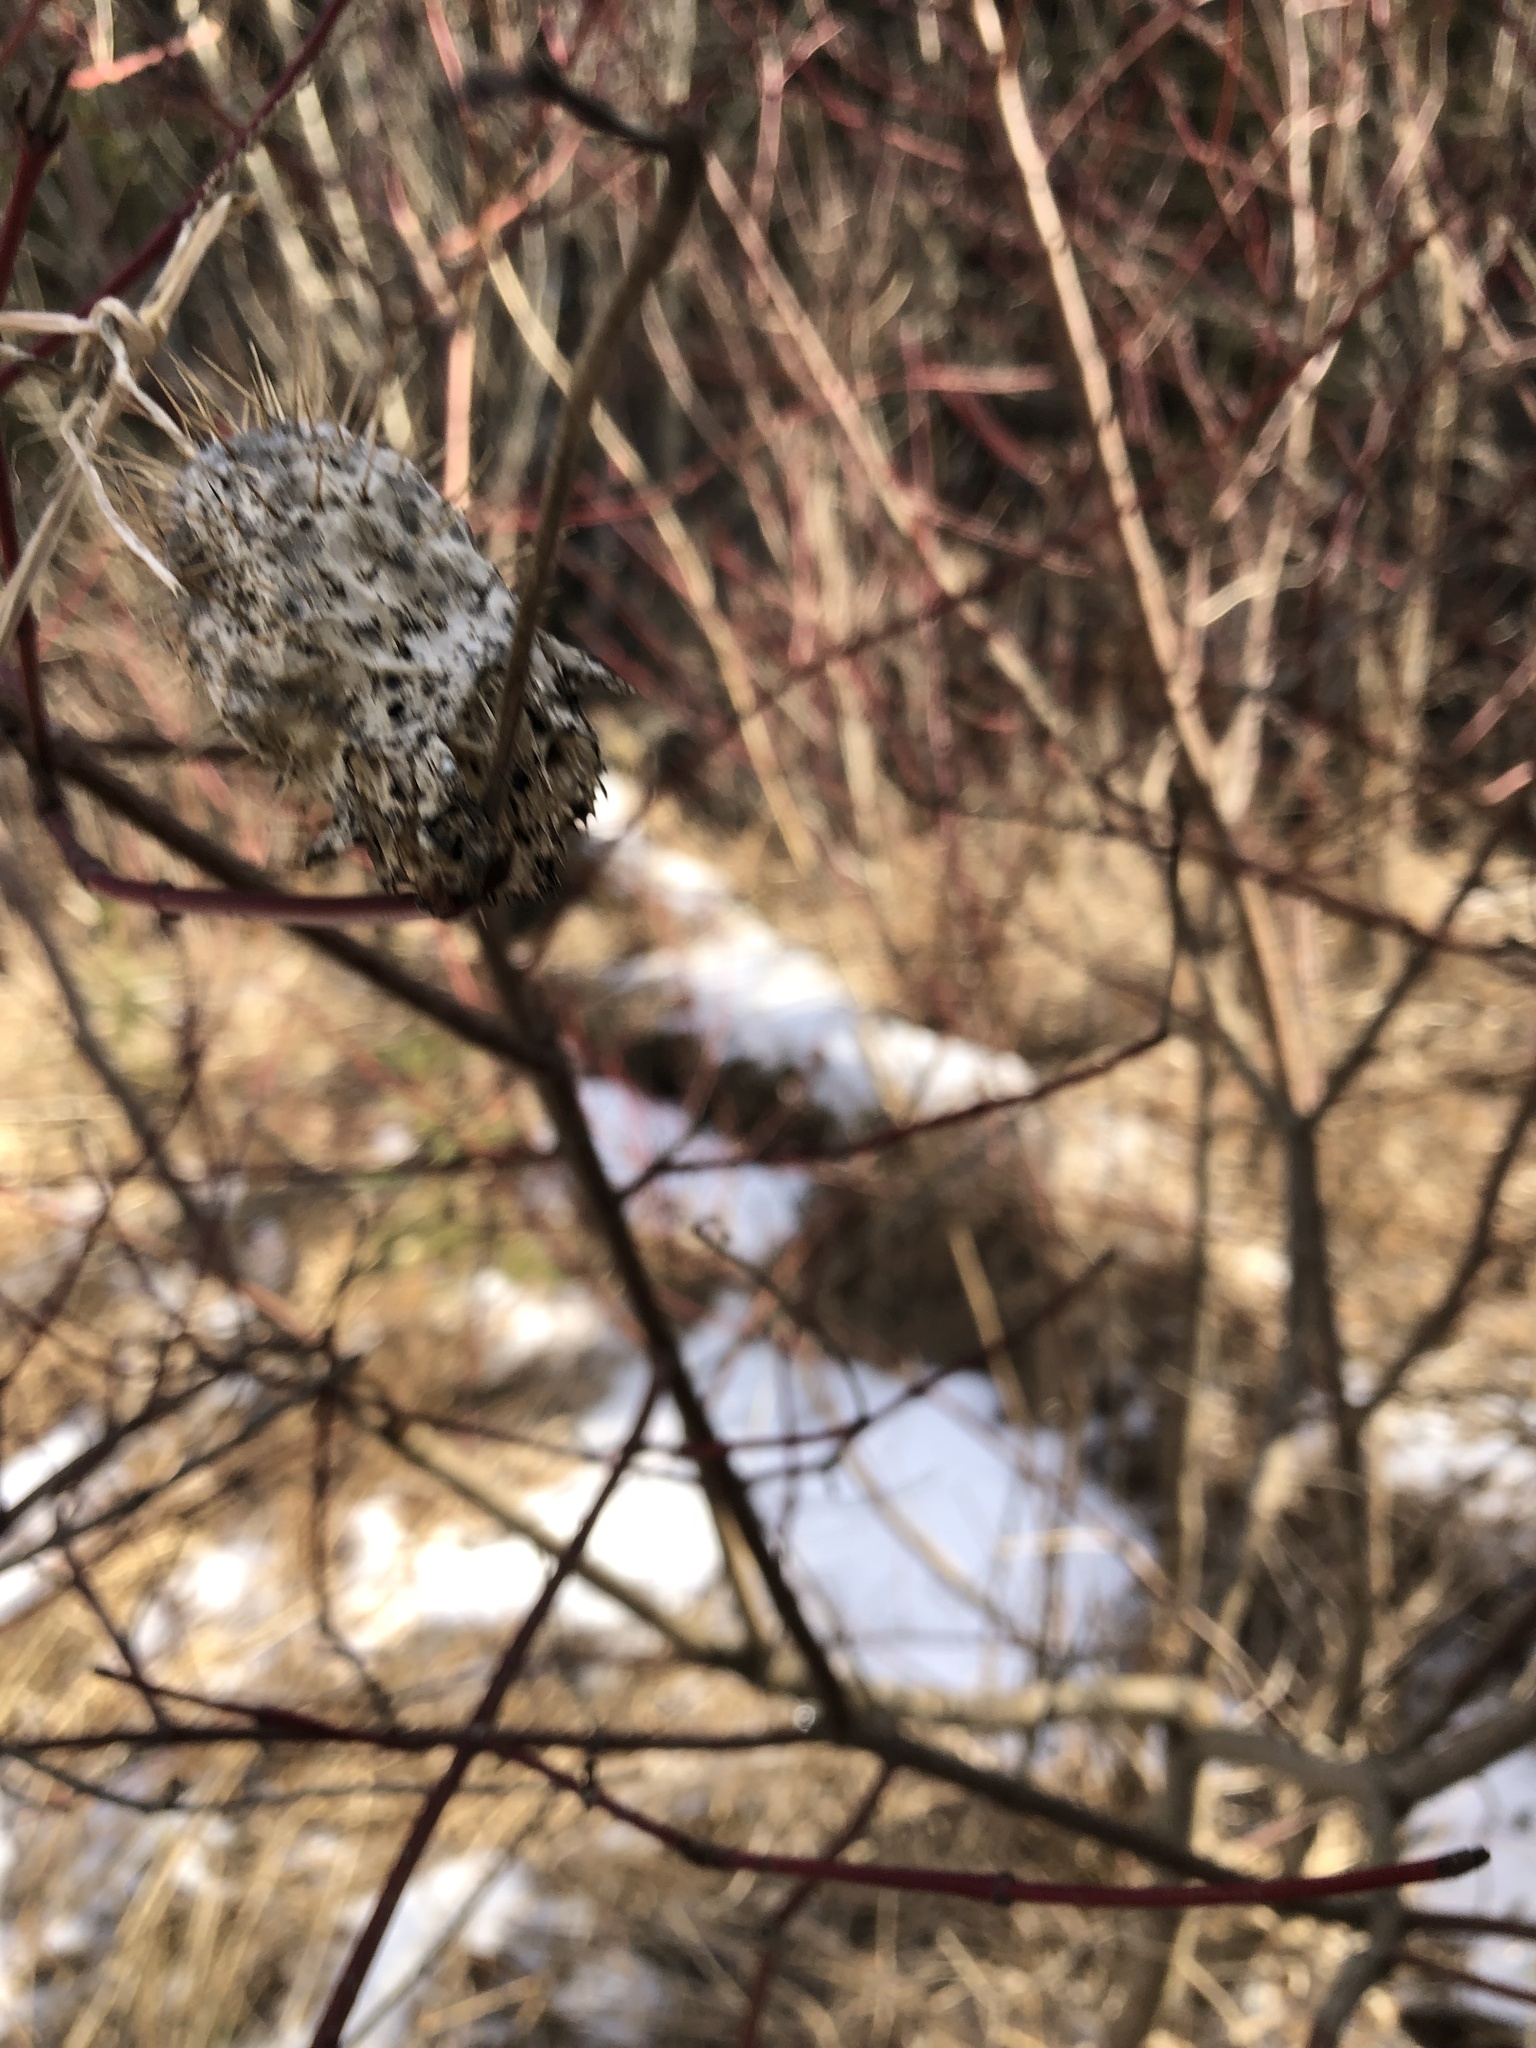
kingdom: Plantae
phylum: Tracheophyta
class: Magnoliopsida
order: Cucurbitales
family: Cucurbitaceae
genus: Echinocystis
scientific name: Echinocystis lobata
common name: Wild cucumber
